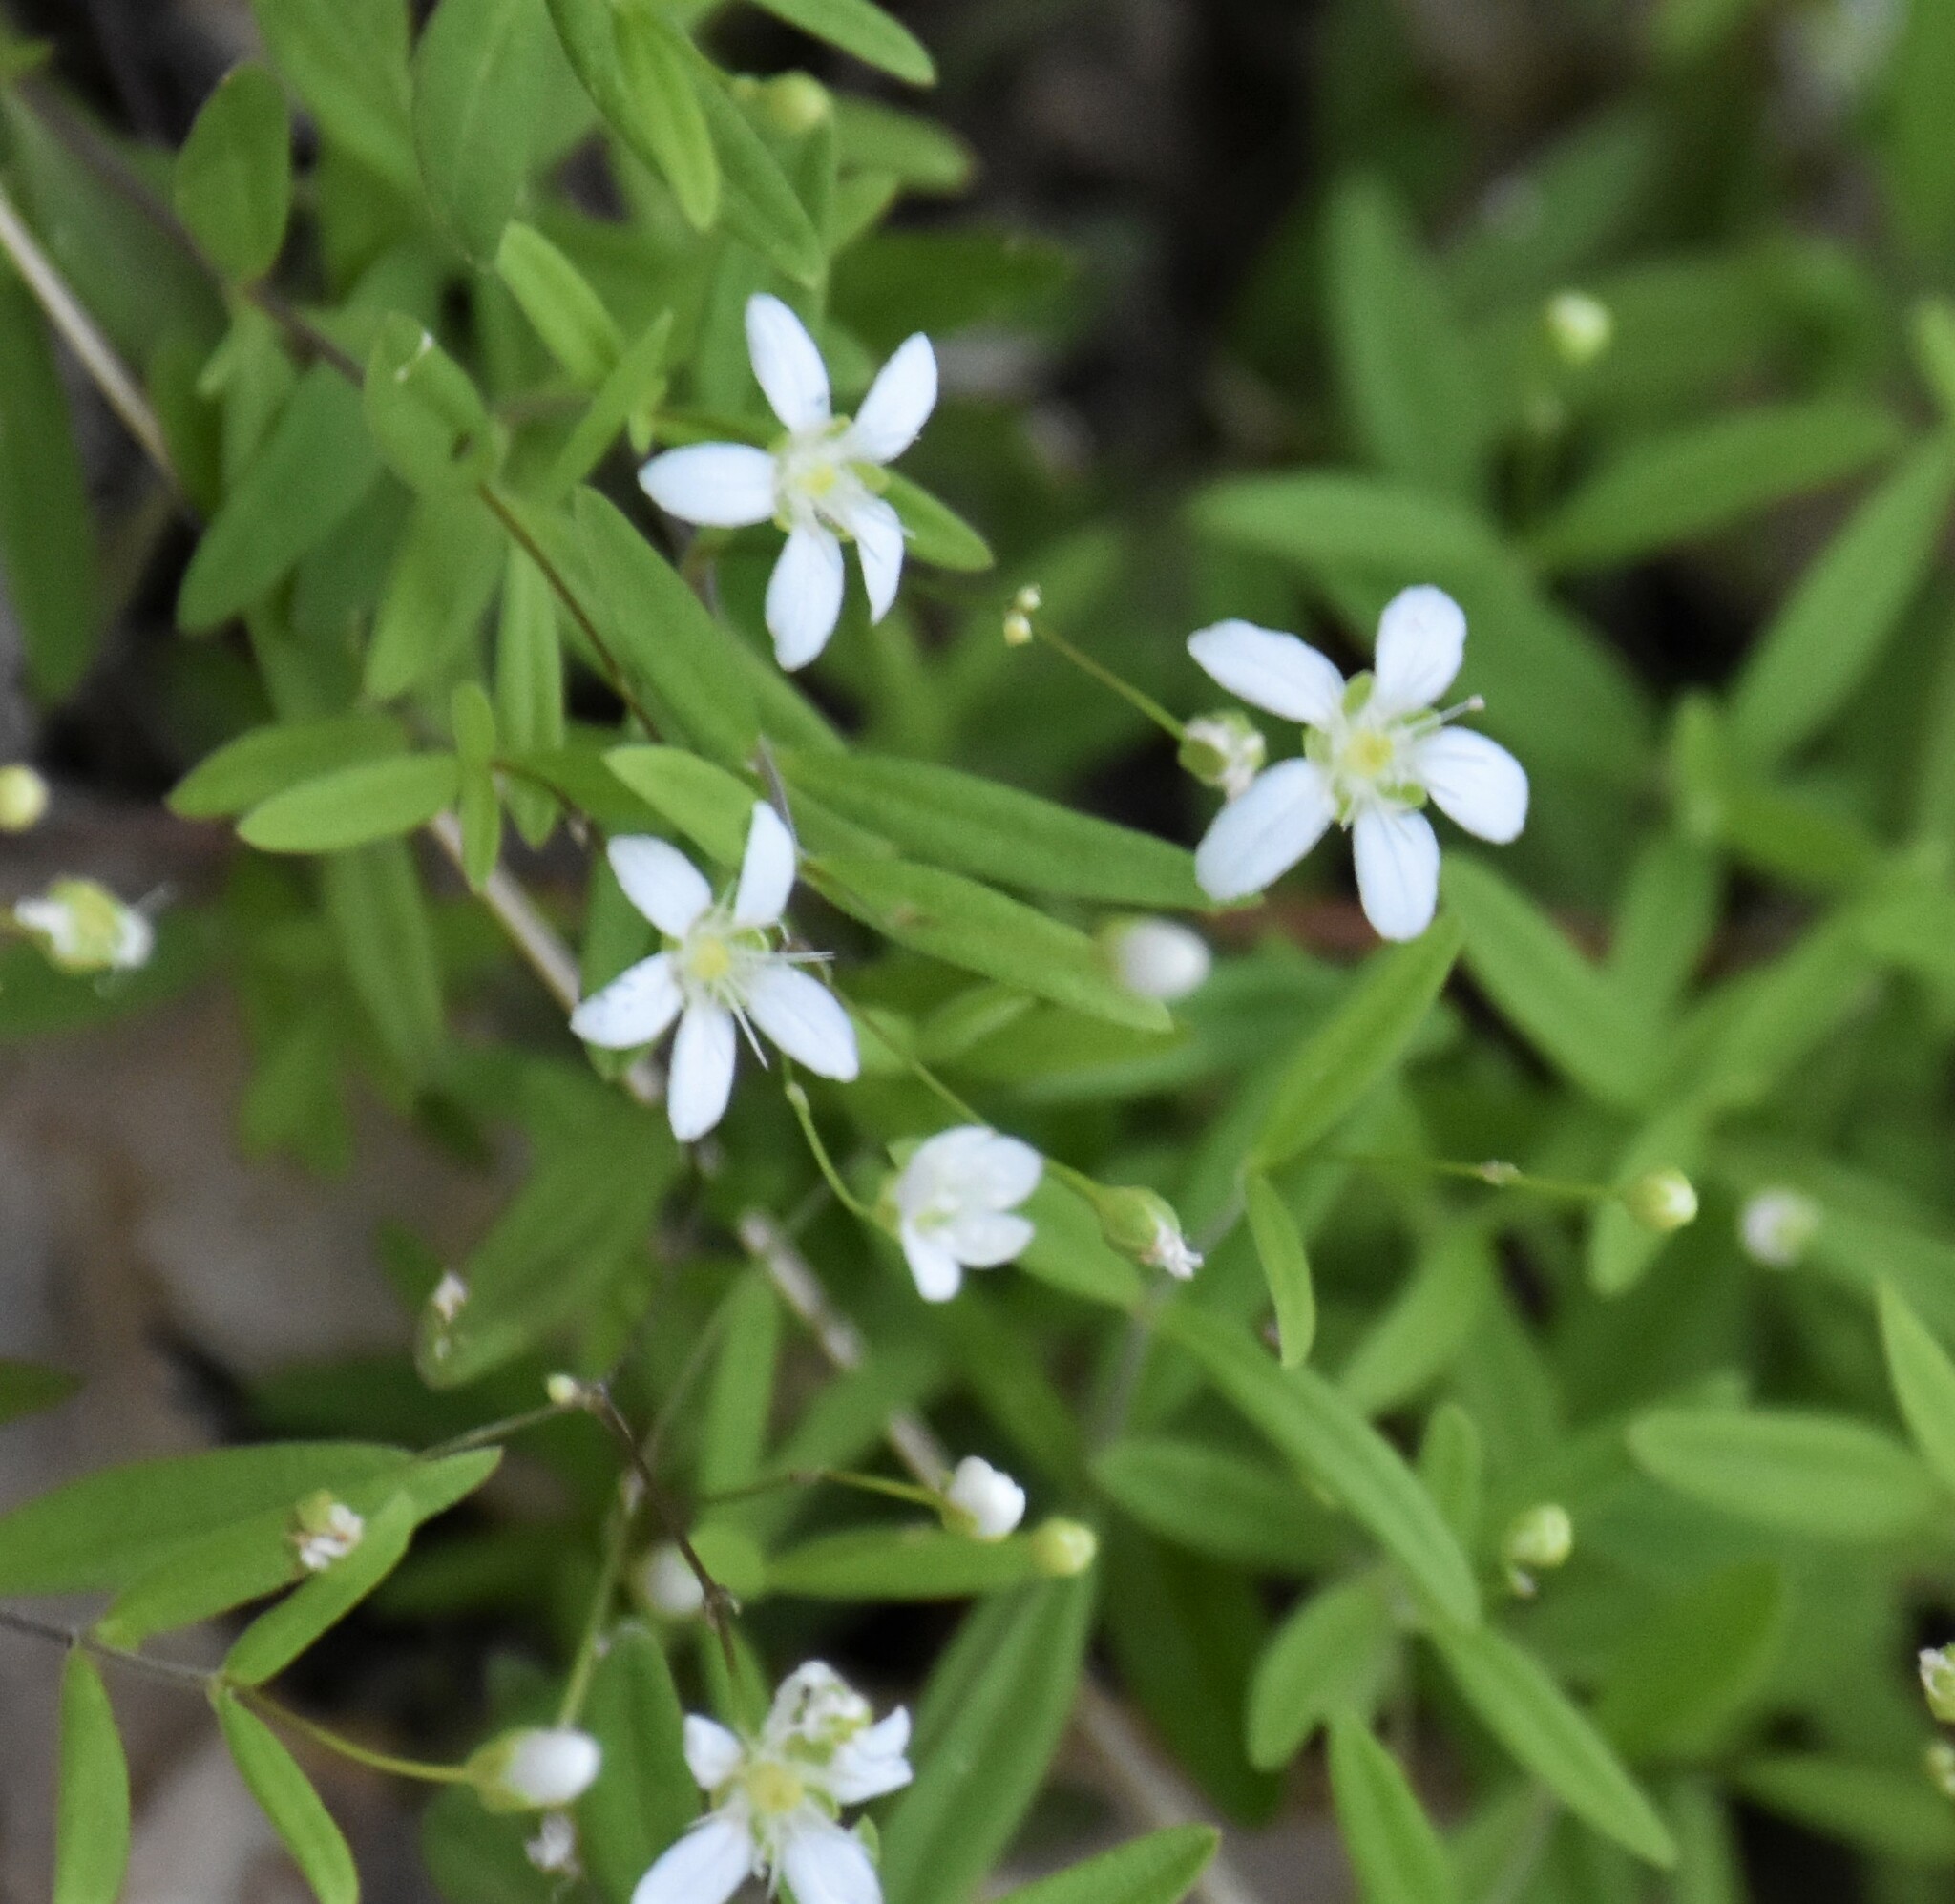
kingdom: Plantae
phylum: Tracheophyta
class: Magnoliopsida
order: Caryophyllales
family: Caryophyllaceae
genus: Moehringia
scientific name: Moehringia lateriflora
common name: Blunt-leaved sandwort
